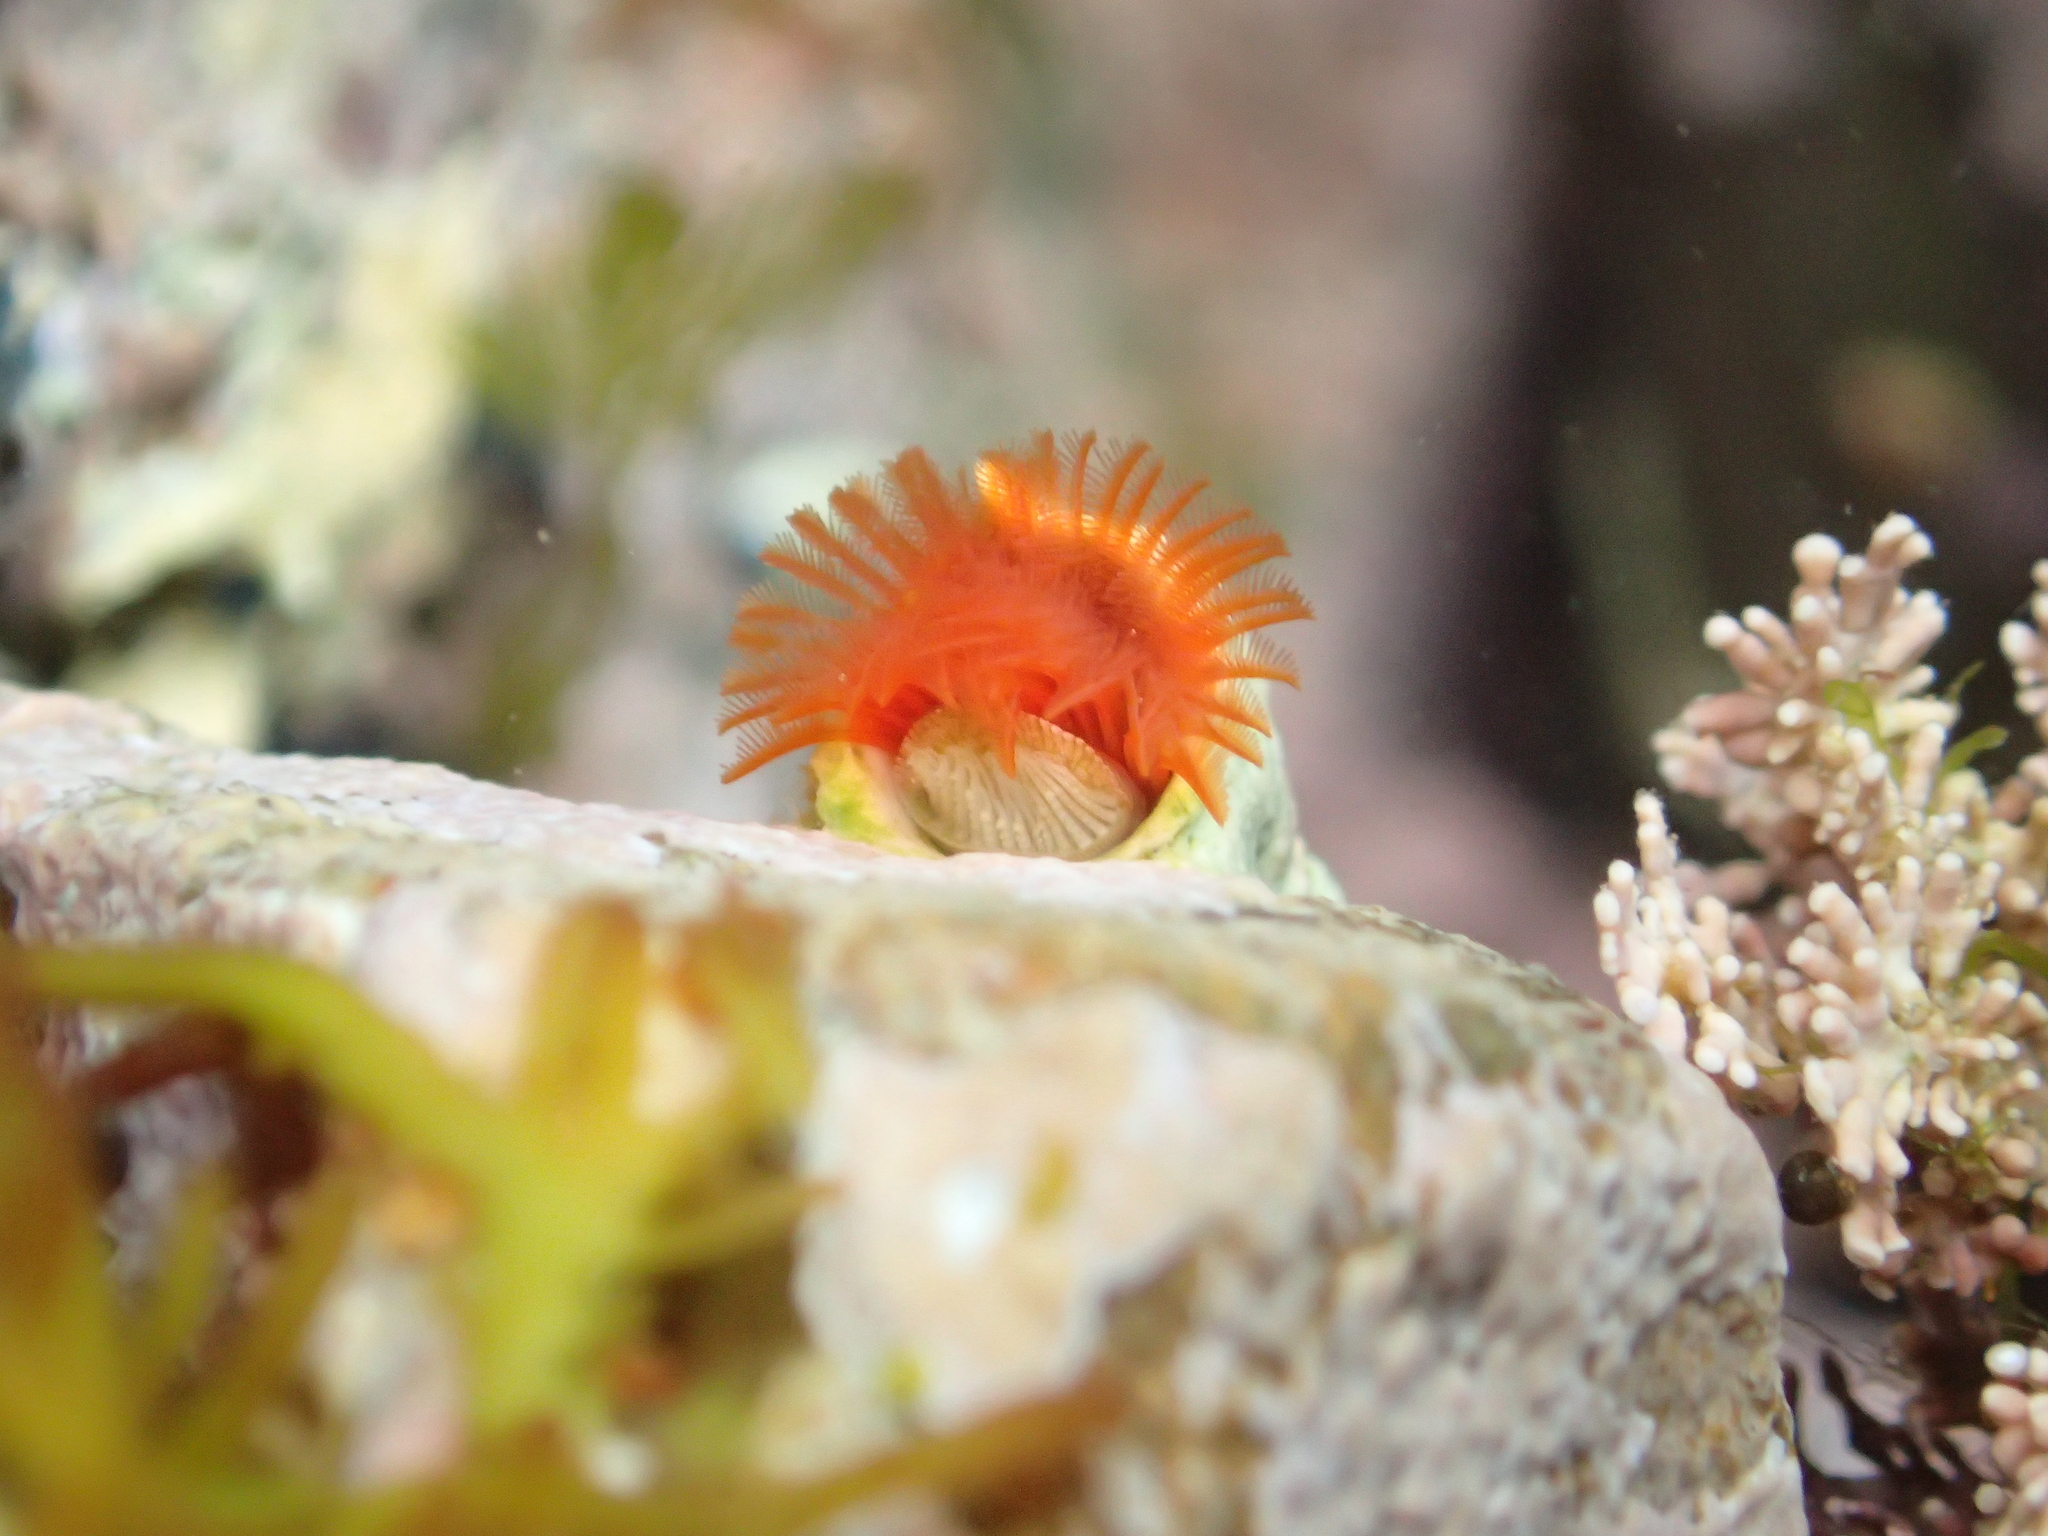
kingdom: Animalia
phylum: Annelida
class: Polychaeta
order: Sabellida
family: Serpulidae
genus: Galeolaria
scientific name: Galeolaria hystrix
